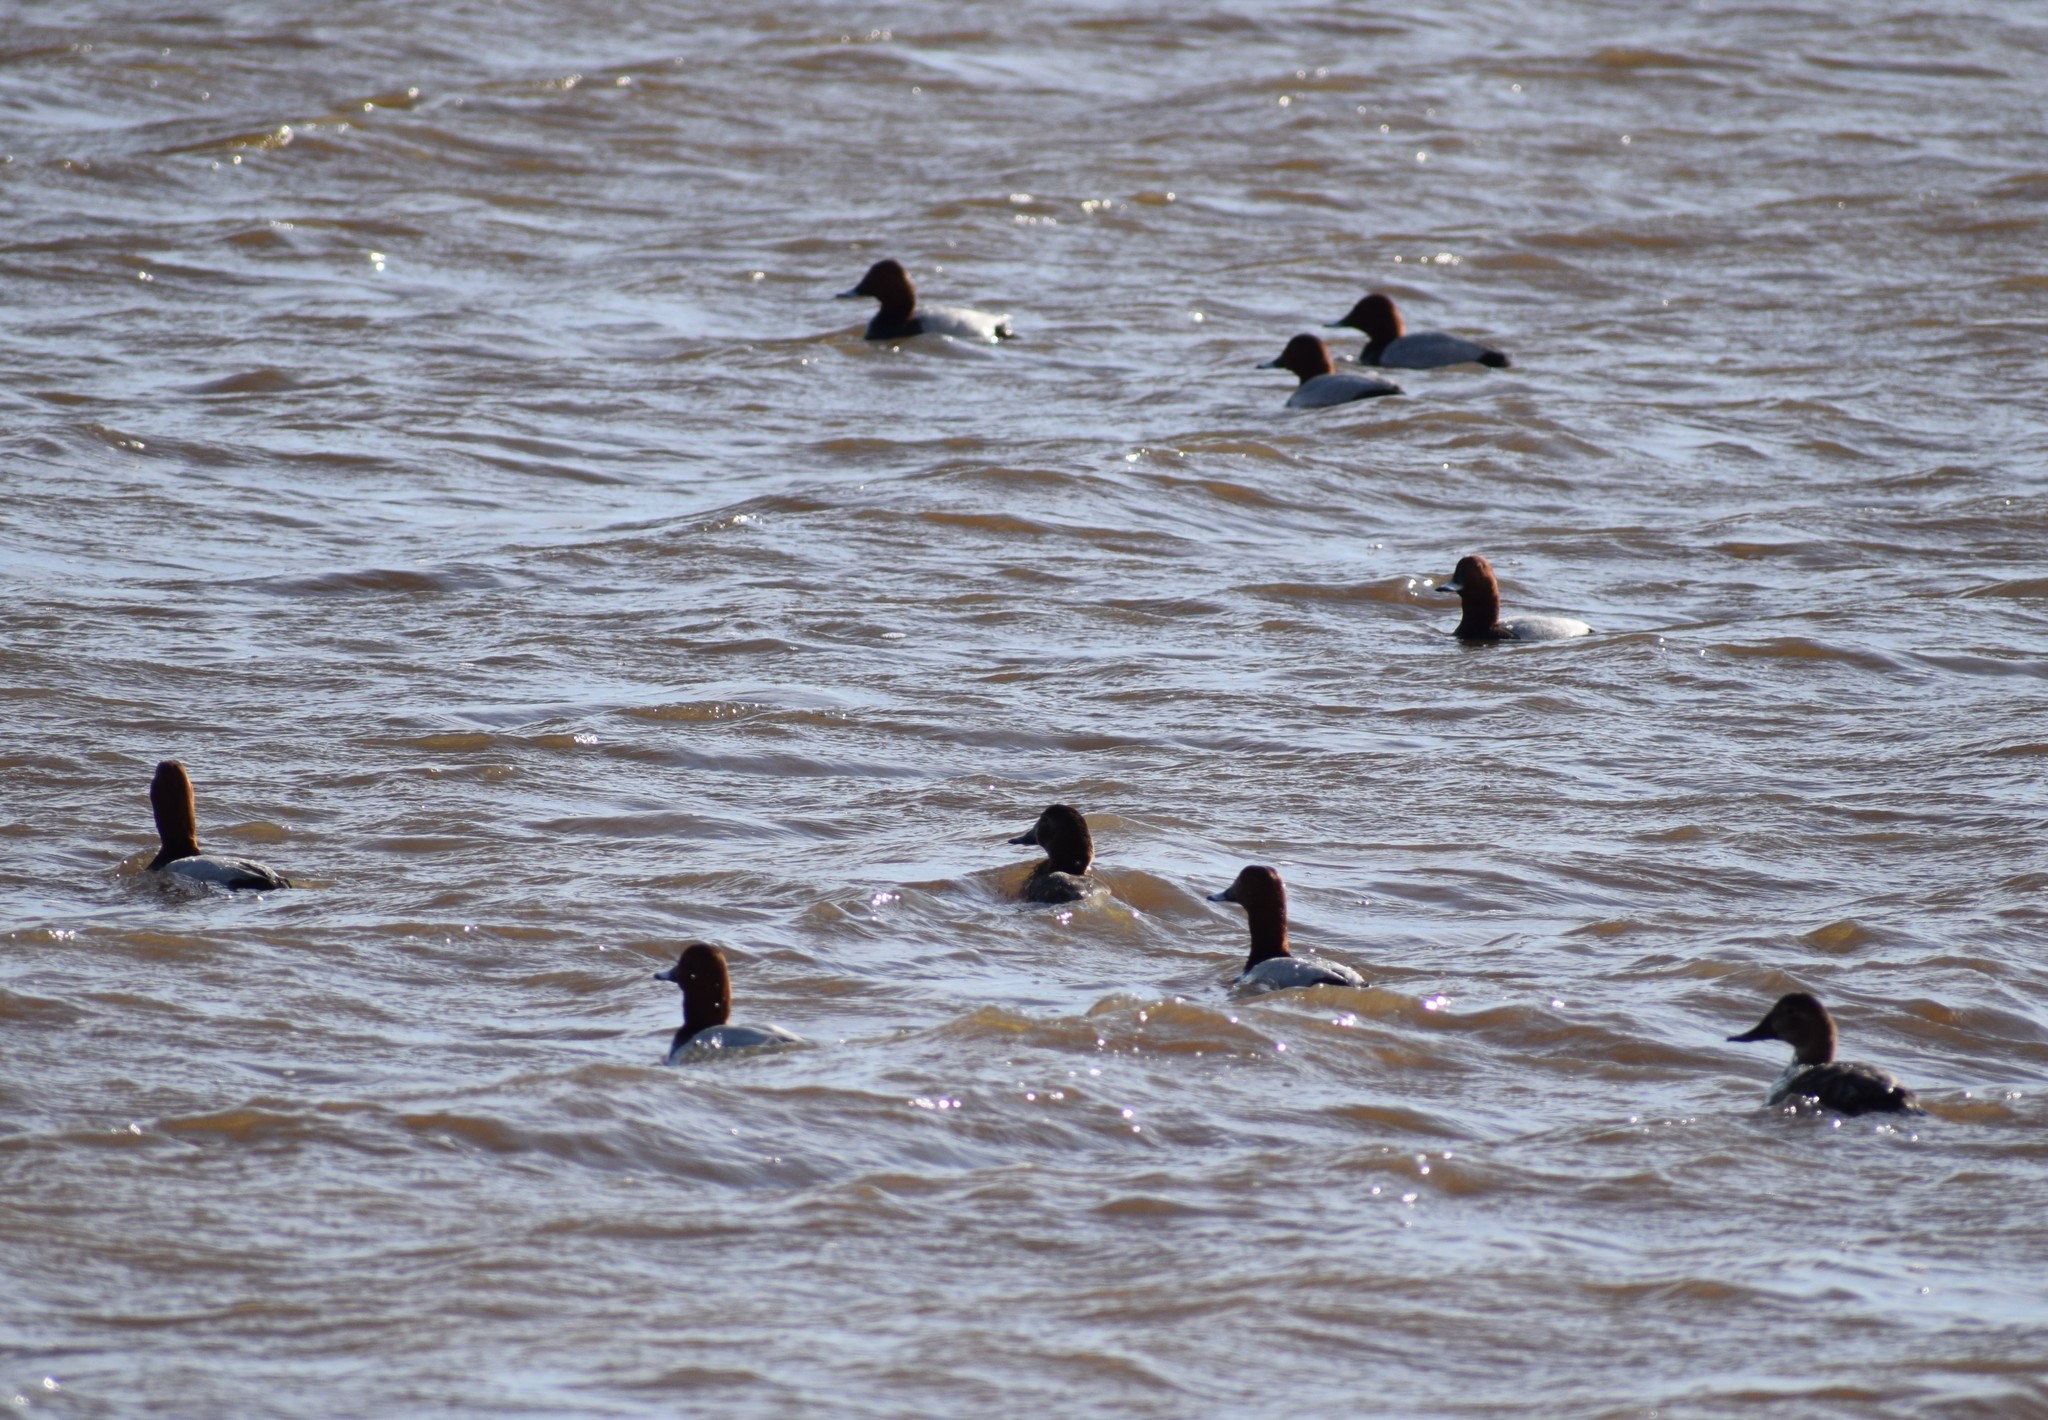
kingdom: Animalia
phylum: Chordata
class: Aves
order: Anseriformes
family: Anatidae
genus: Aythya
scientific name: Aythya ferina
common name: Common pochard
